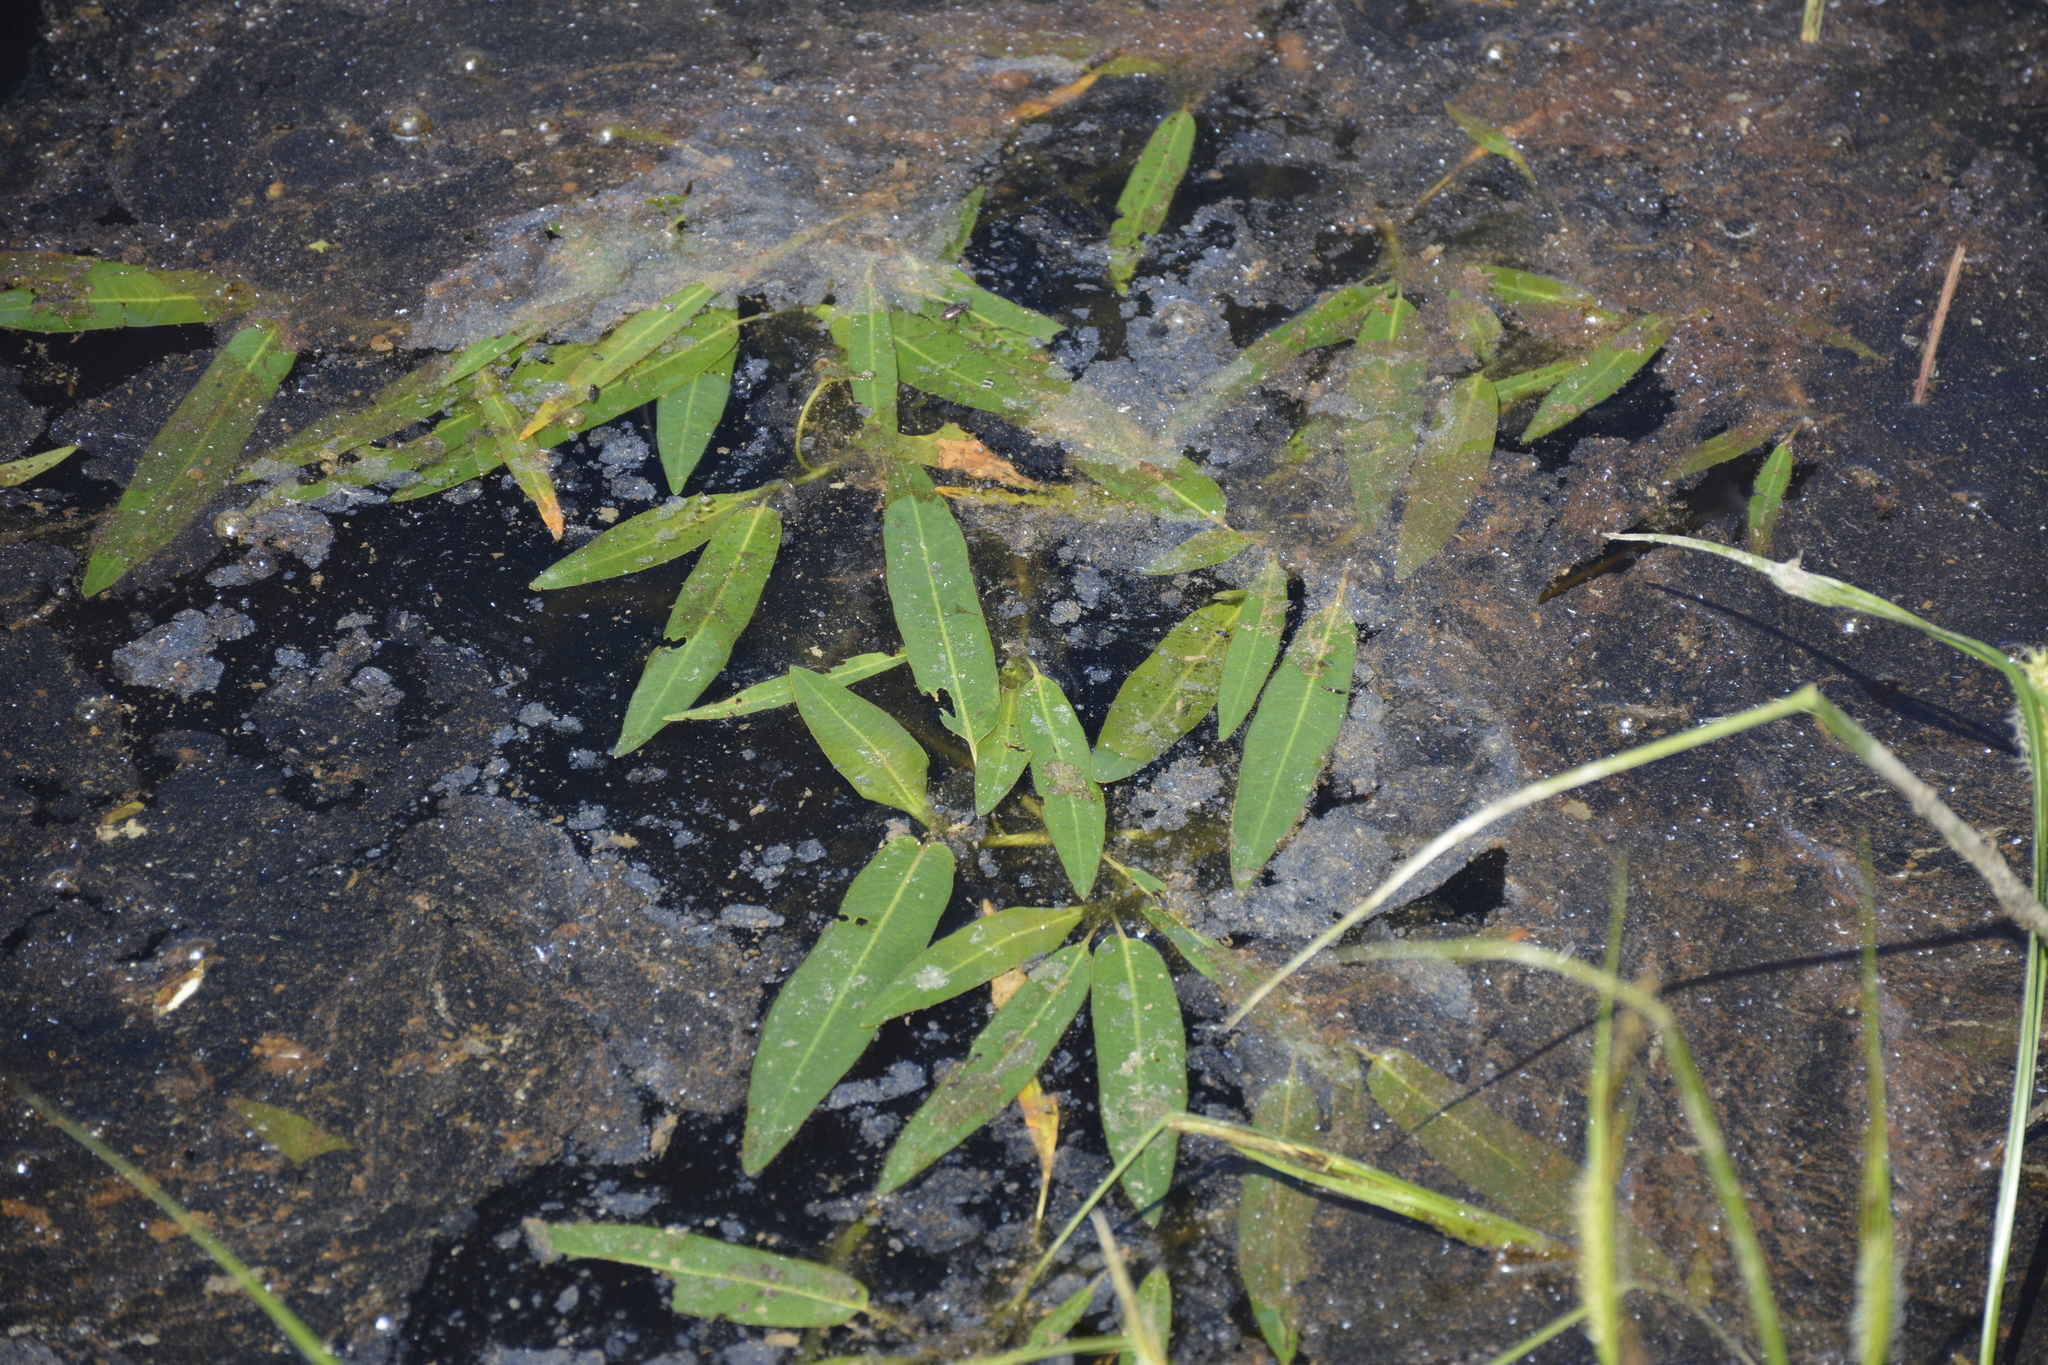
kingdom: Plantae
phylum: Tracheophyta
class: Magnoliopsida
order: Caryophyllales
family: Polygonaceae
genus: Persicaria
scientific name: Persicaria amphibia
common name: Amphibious bistort
